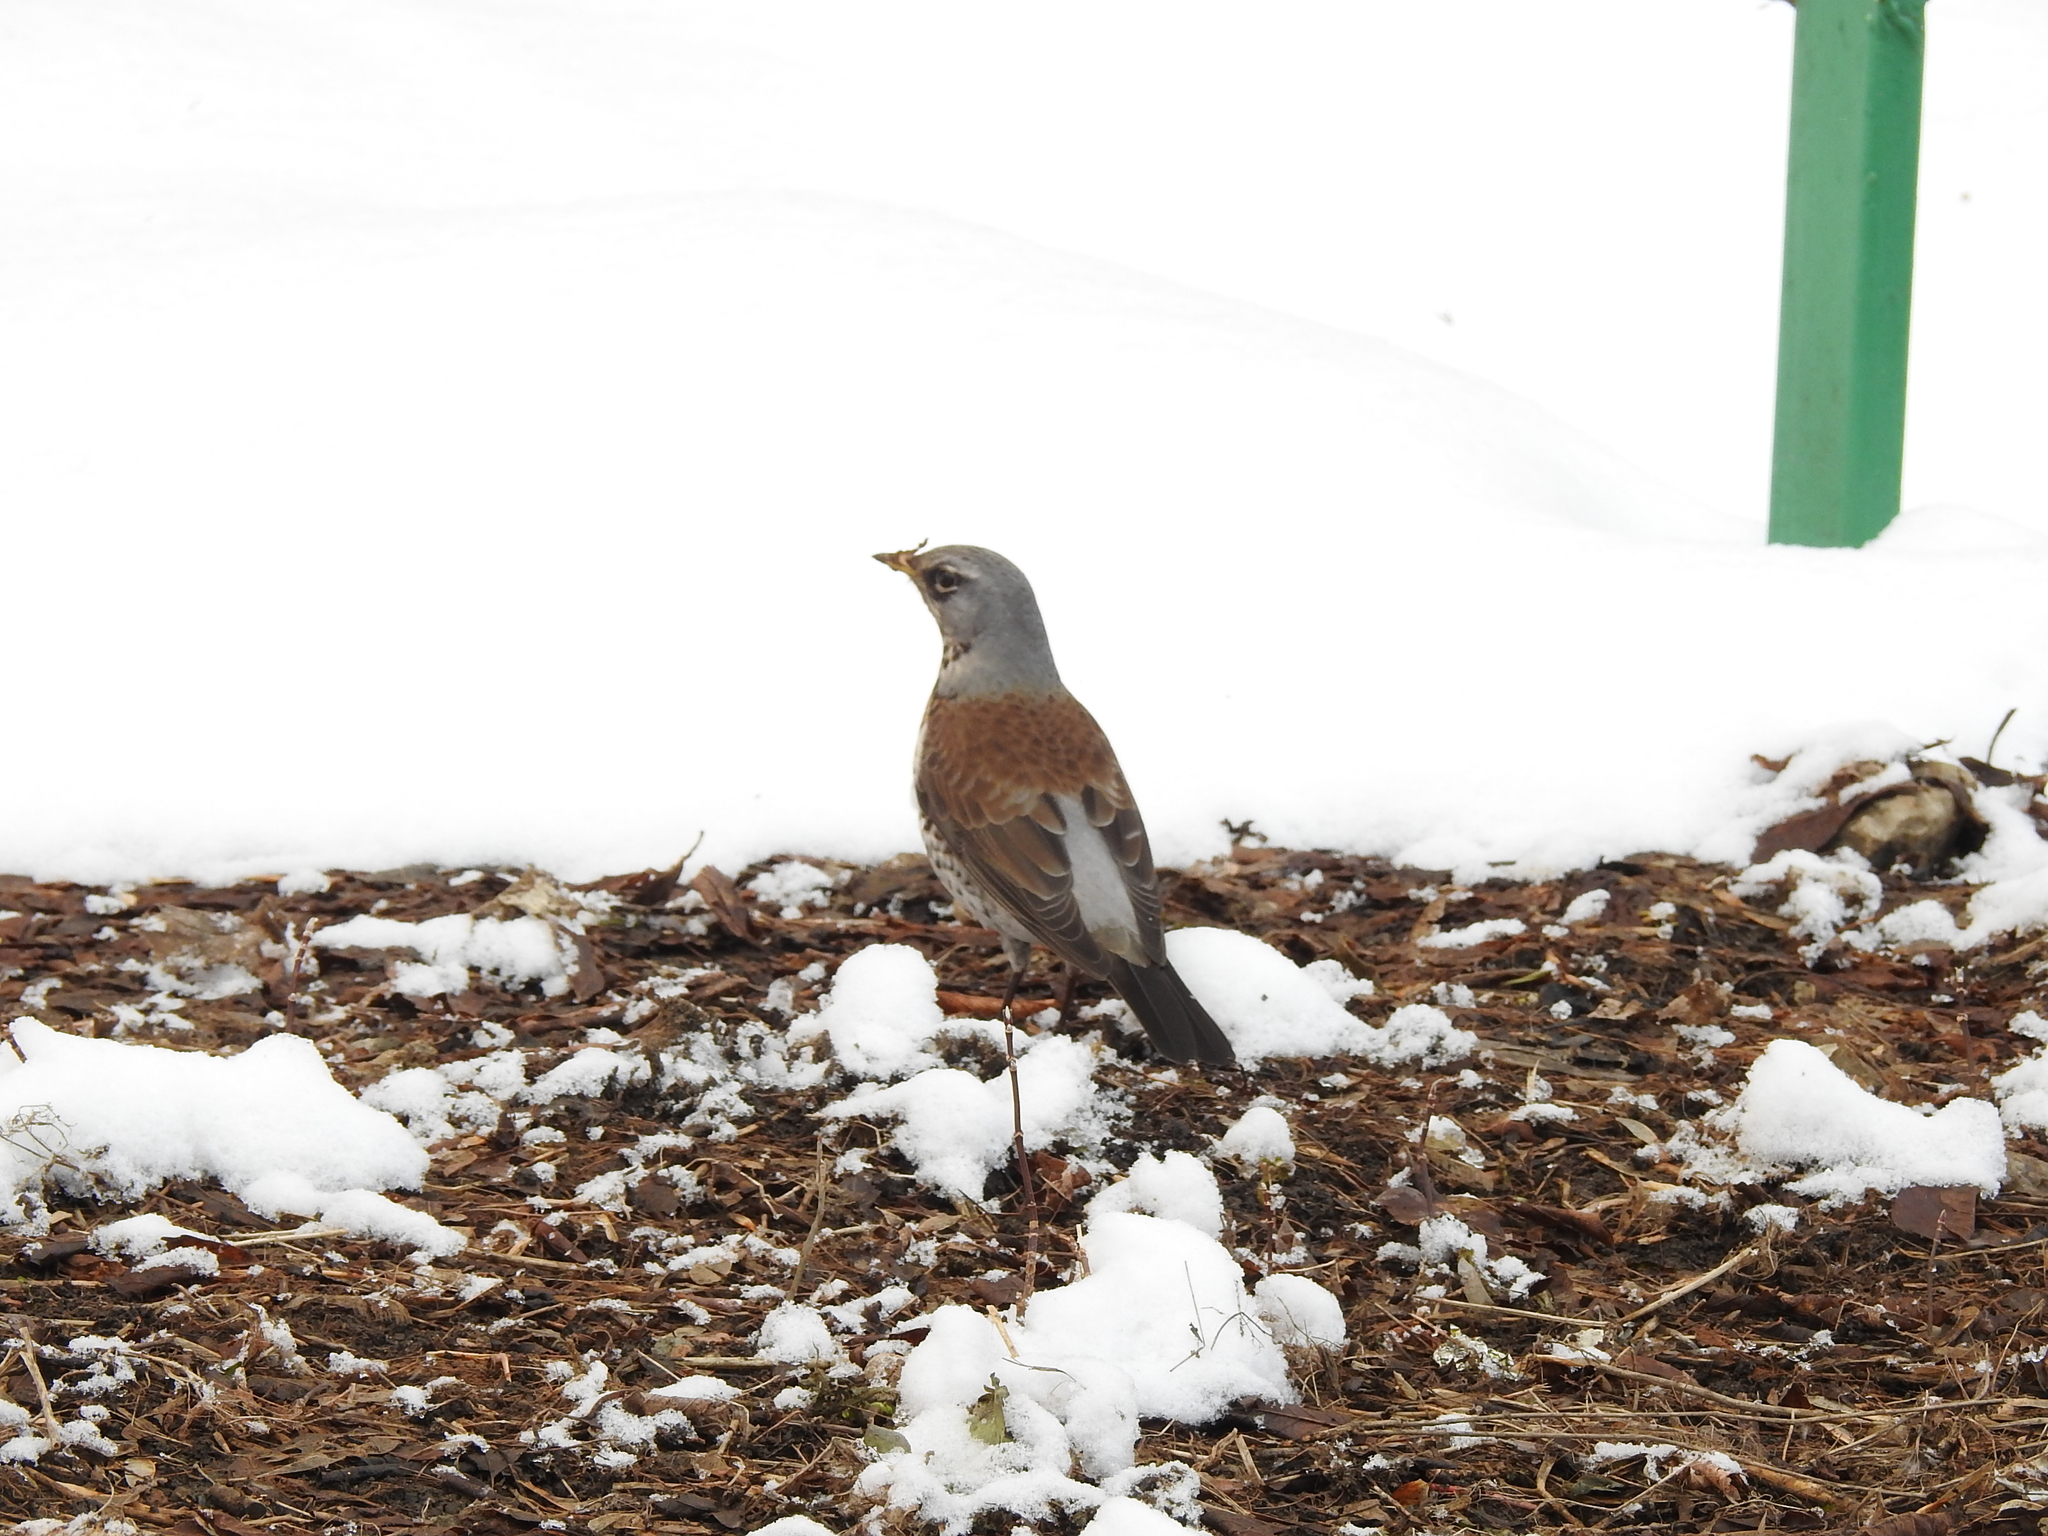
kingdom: Animalia
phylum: Chordata
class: Aves
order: Passeriformes
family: Turdidae
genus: Turdus
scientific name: Turdus pilaris
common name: Fieldfare
